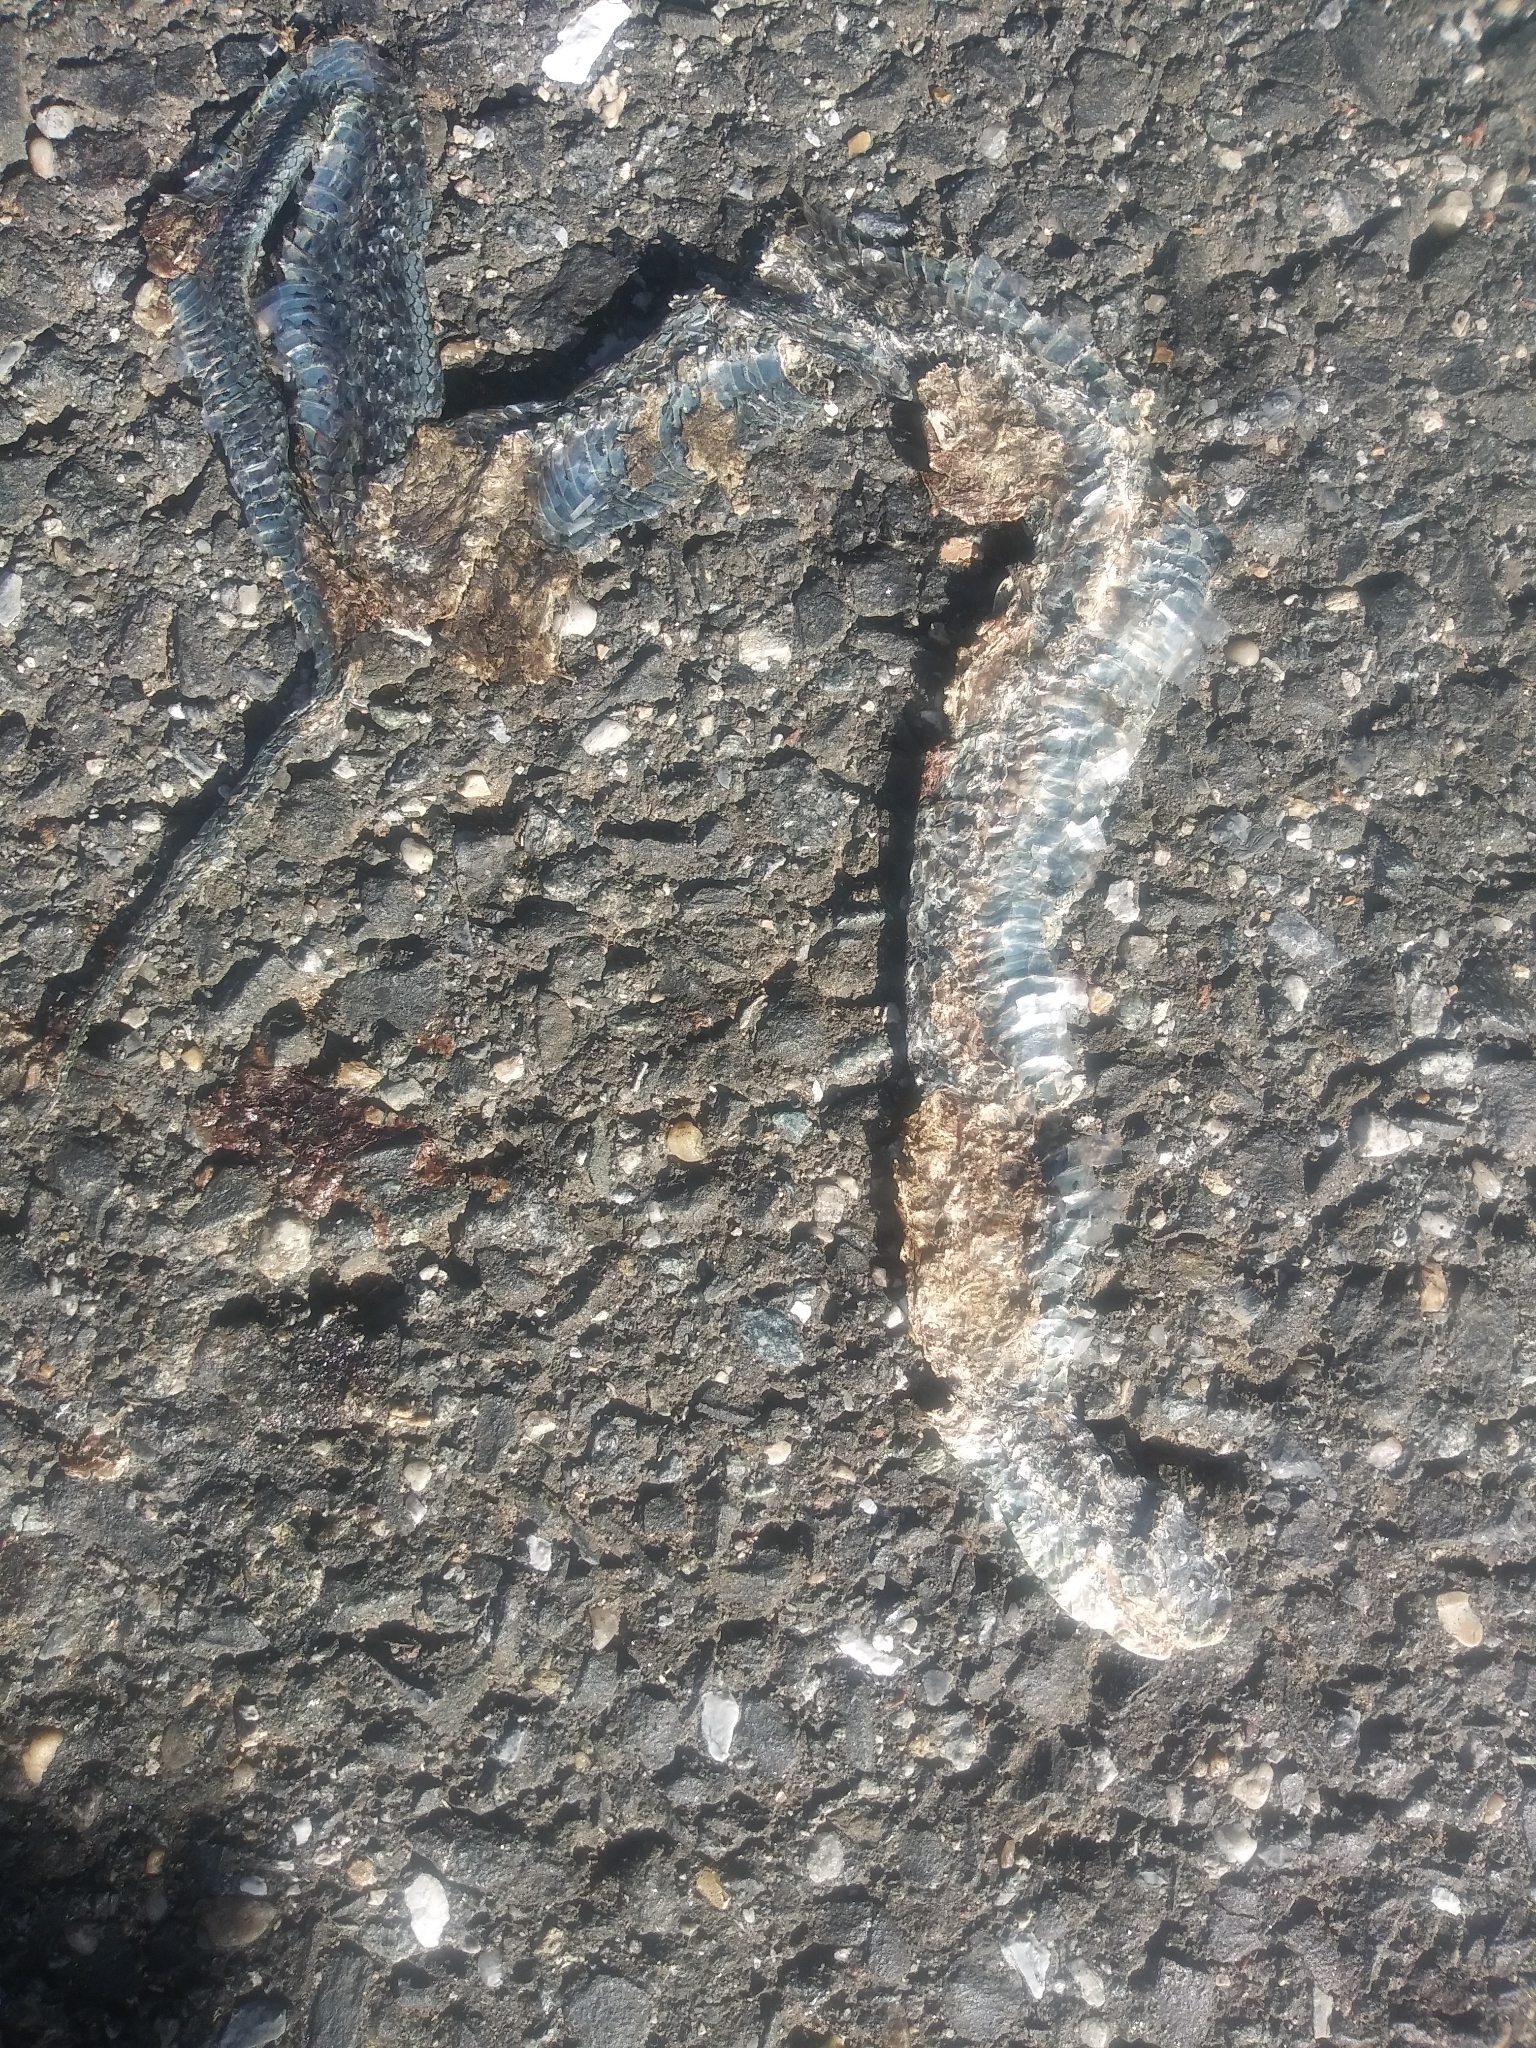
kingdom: Animalia
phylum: Chordata
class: Squamata
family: Colubridae
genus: Thamnophis
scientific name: Thamnophis sirtalis
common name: Common garter snake
